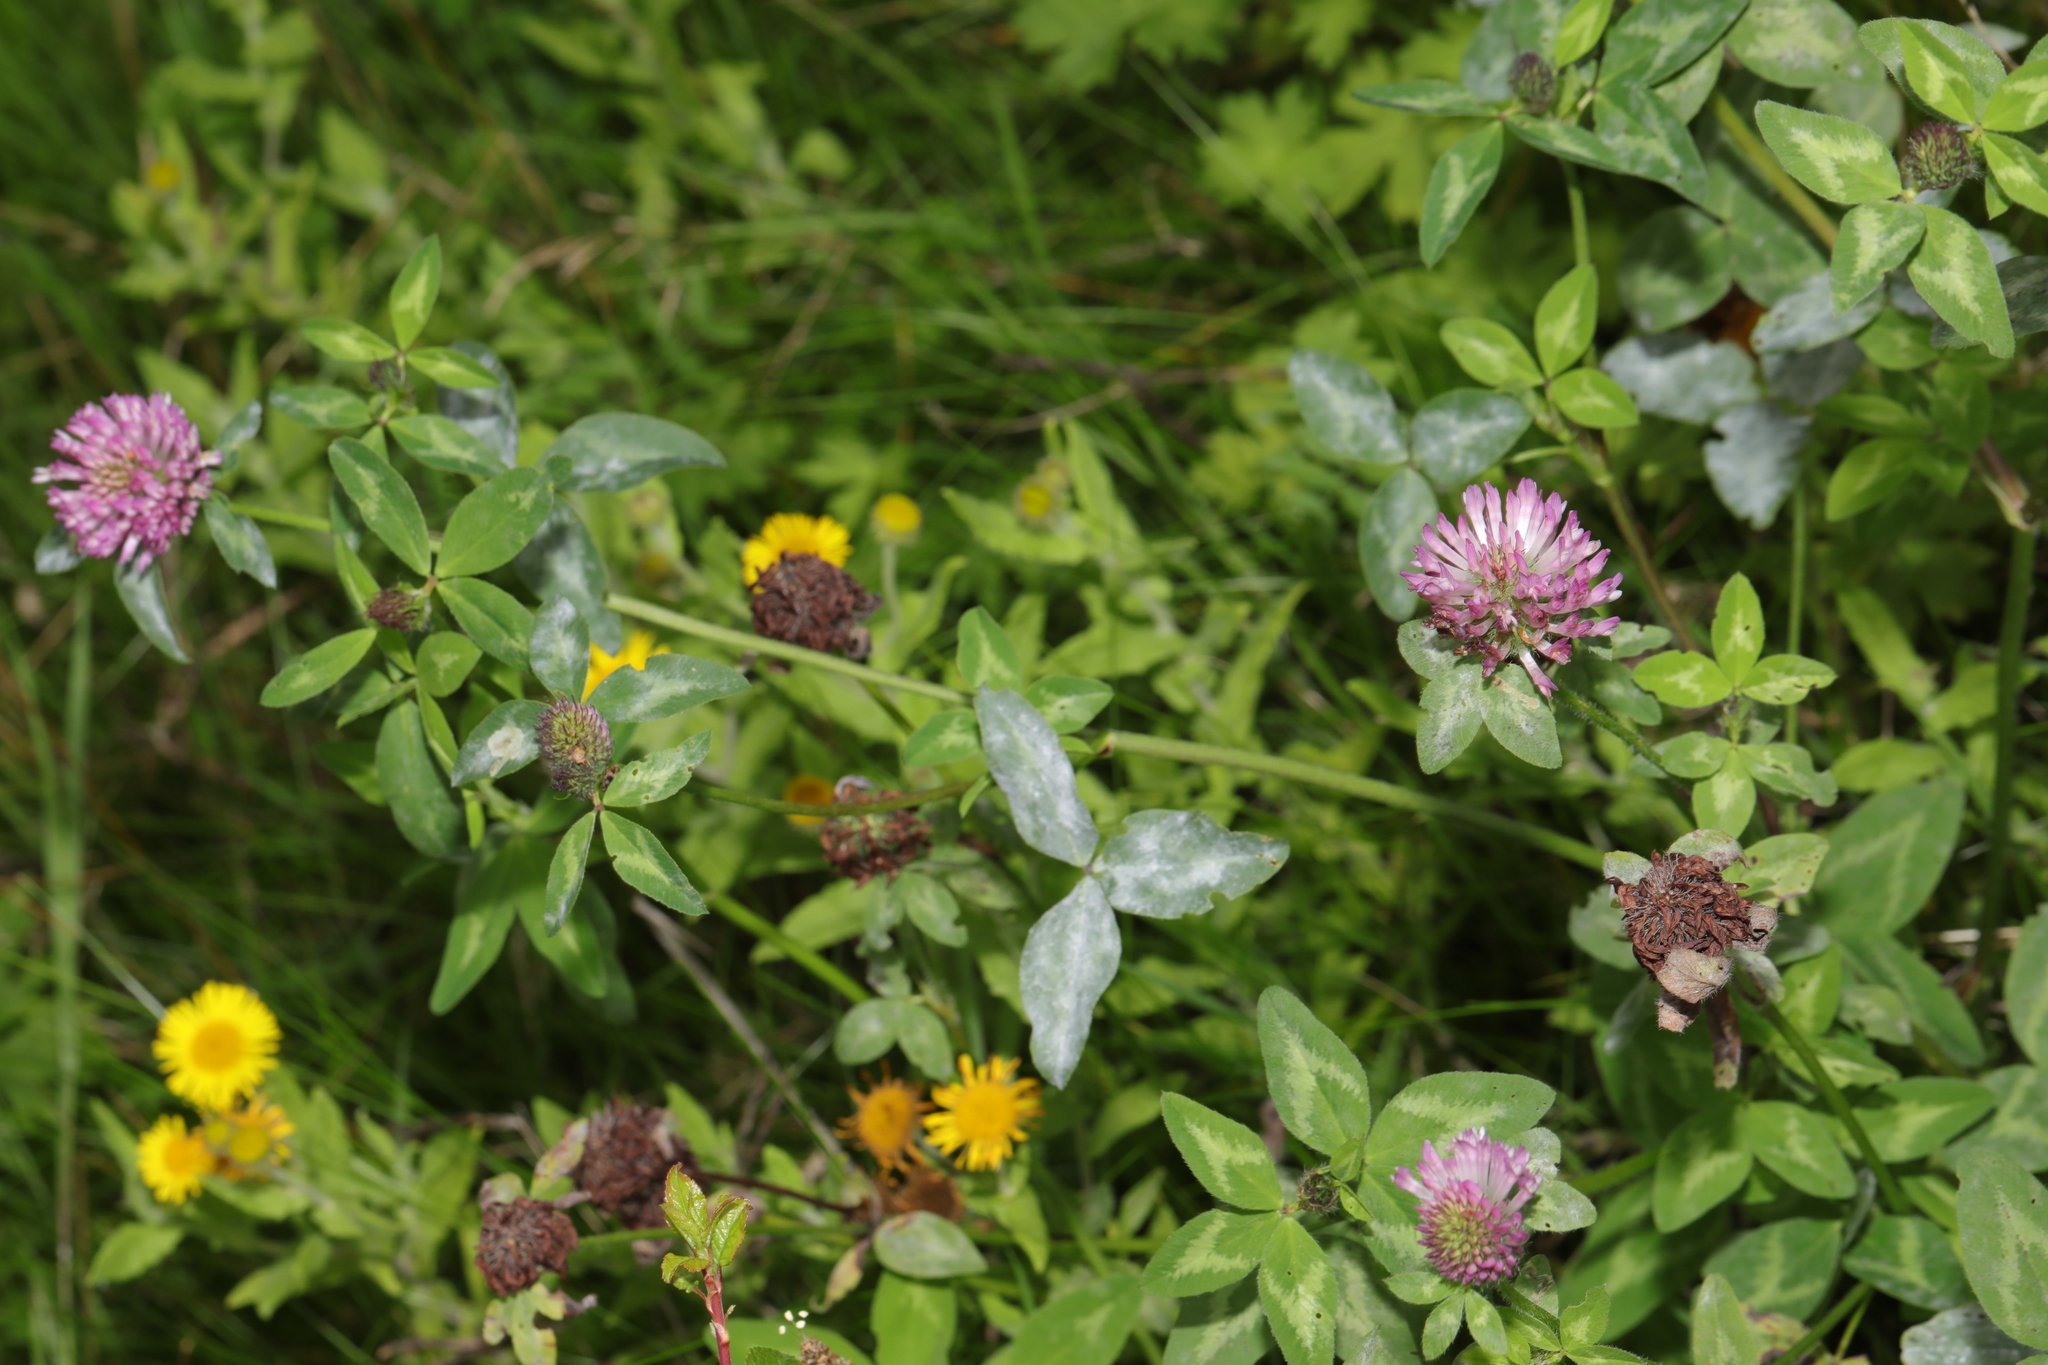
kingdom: Plantae
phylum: Tracheophyta
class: Magnoliopsida
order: Fabales
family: Fabaceae
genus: Trifolium
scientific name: Trifolium pratense
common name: Red clover
